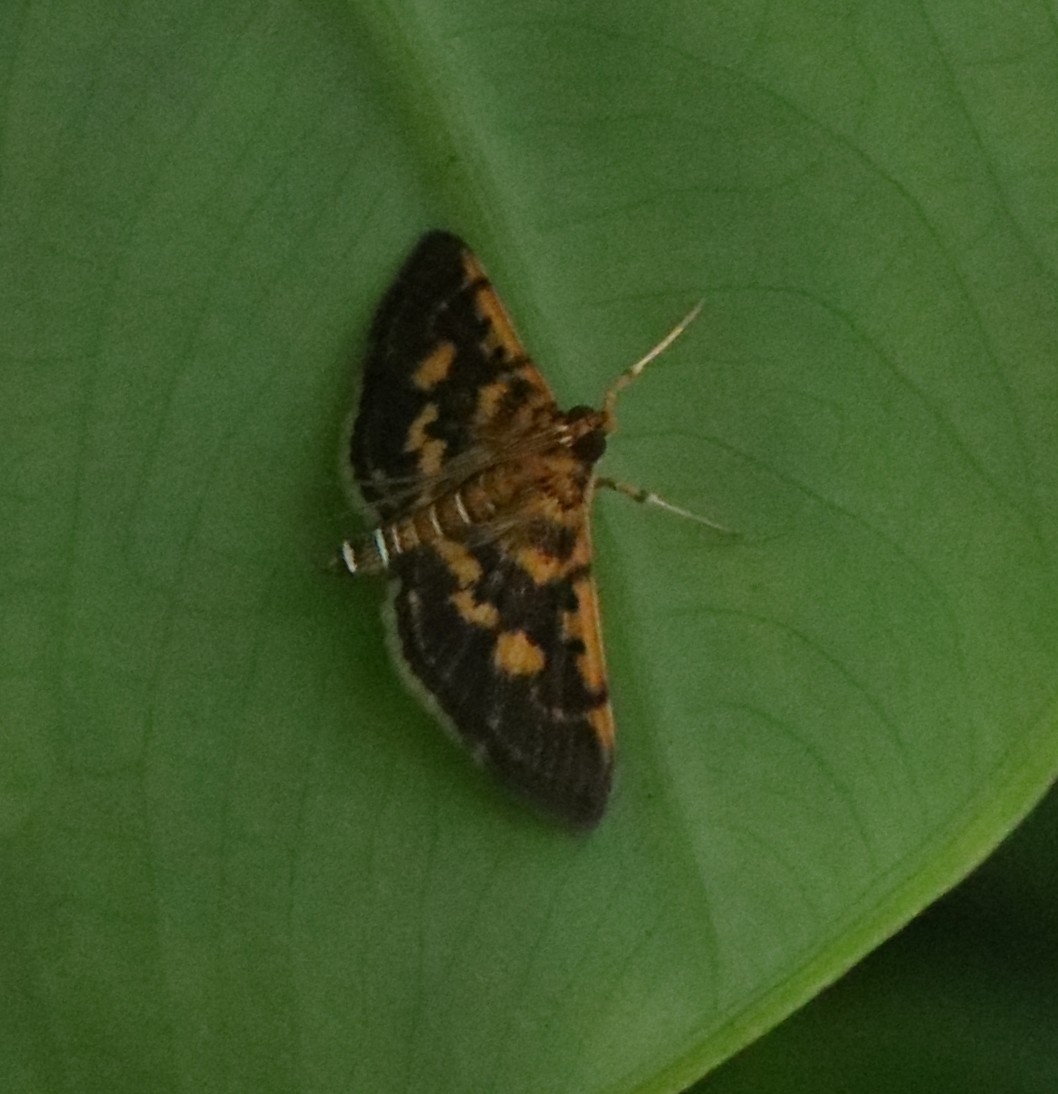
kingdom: Animalia
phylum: Arthropoda
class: Insecta
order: Lepidoptera
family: Crambidae
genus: Omiodes
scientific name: Omiodes diemenalis
